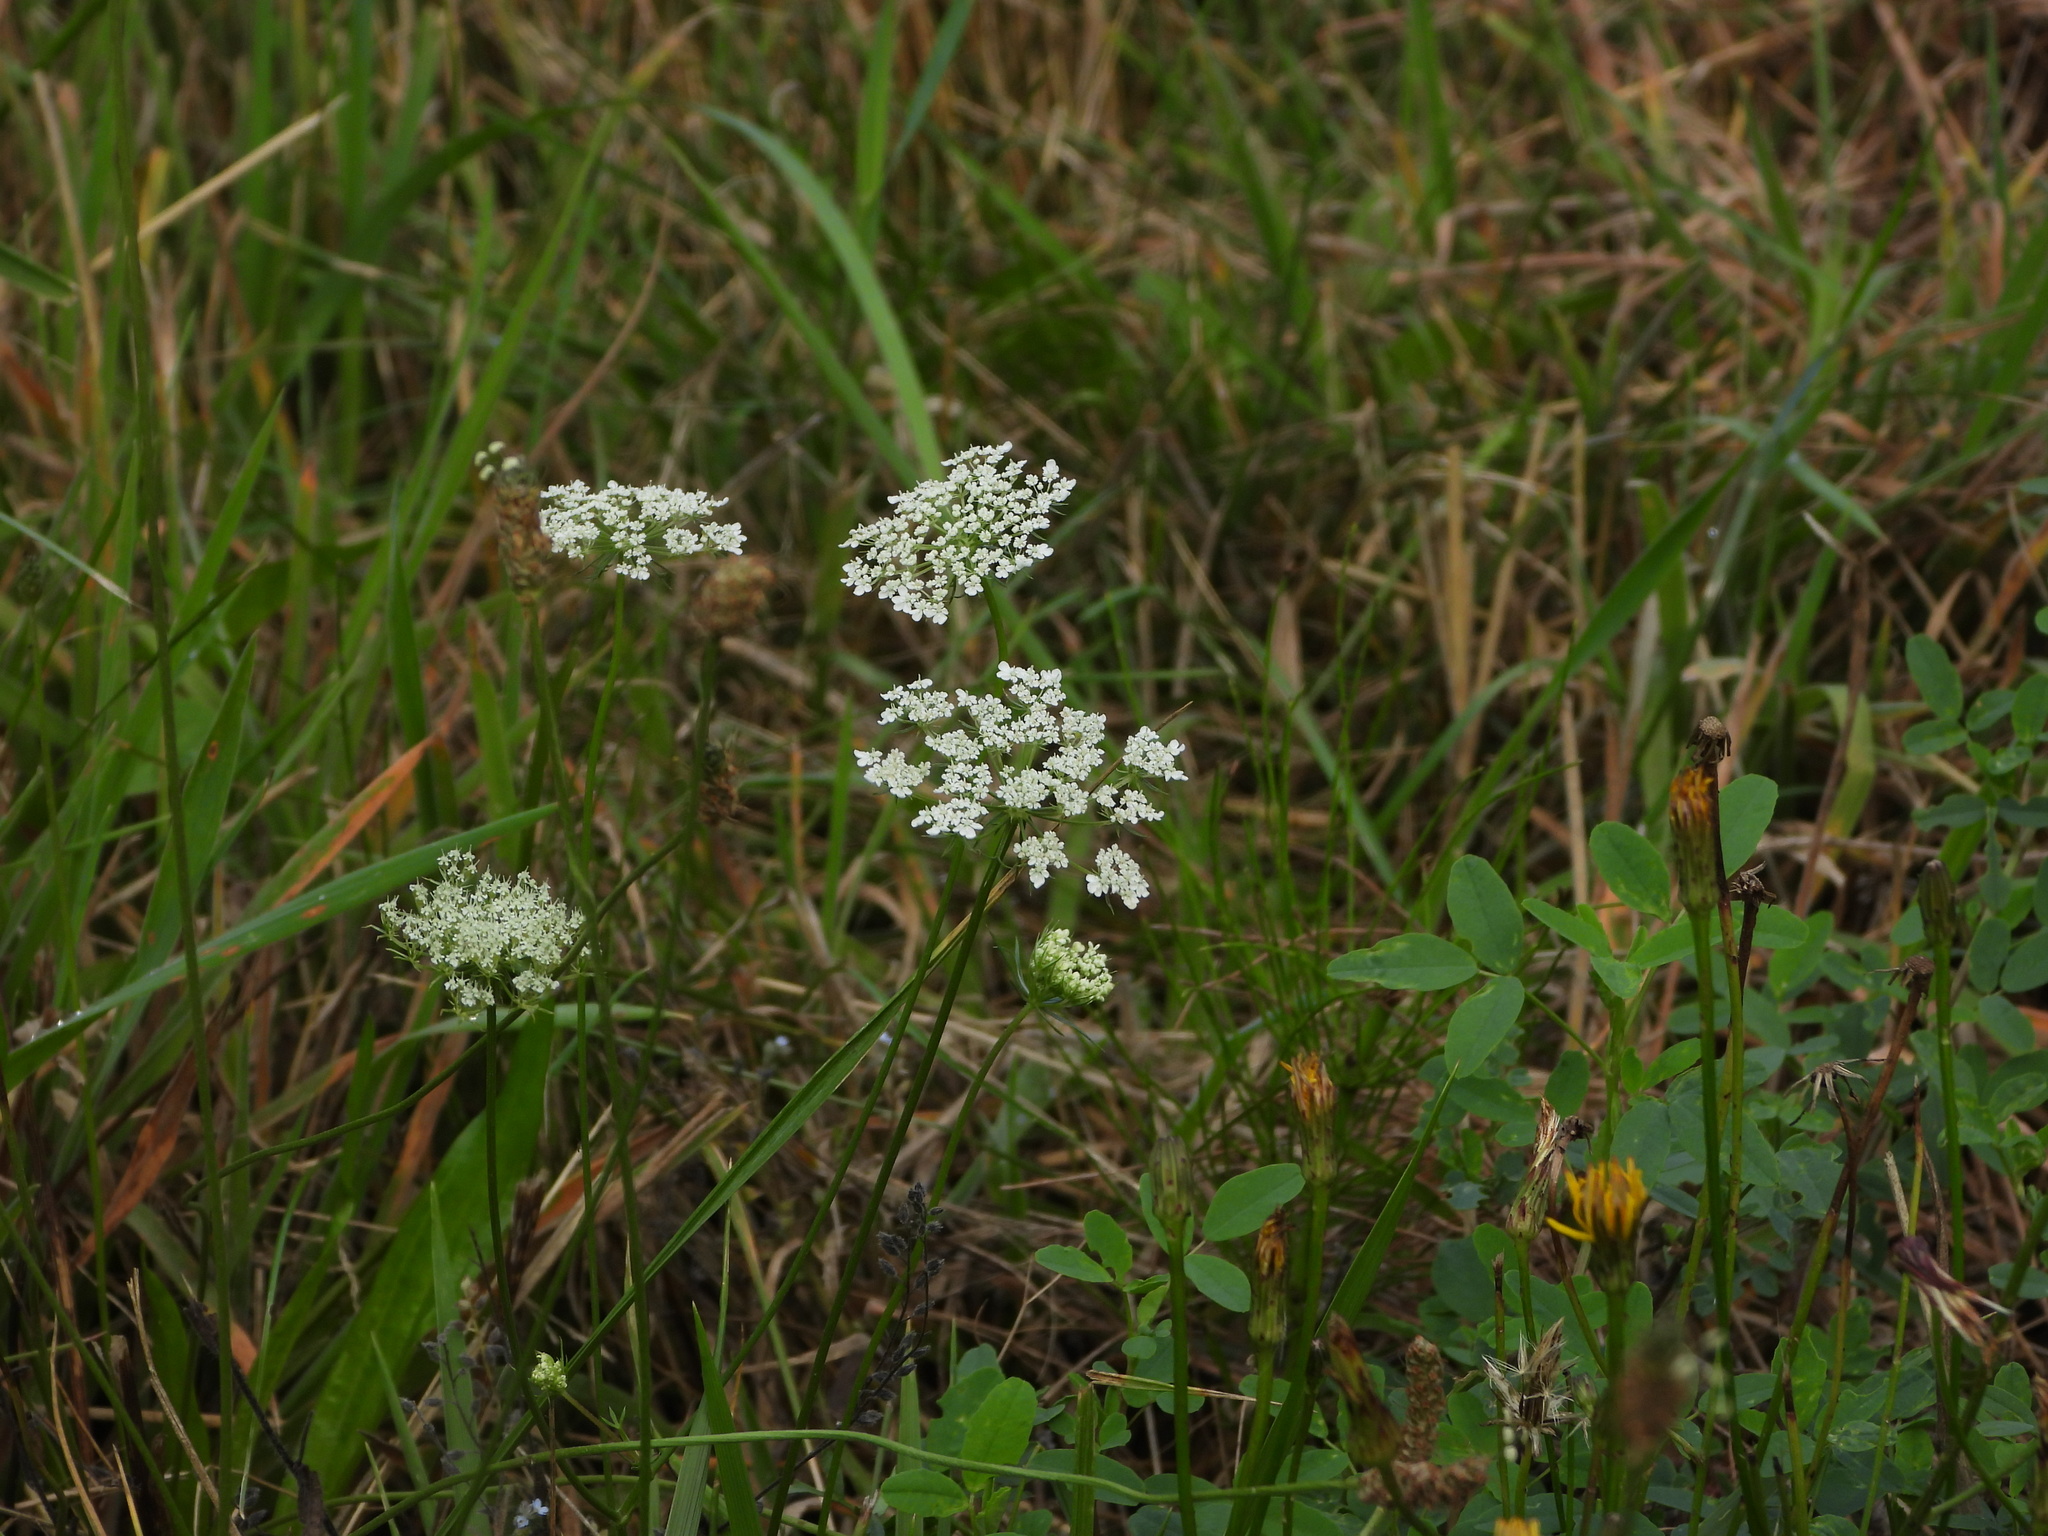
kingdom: Plantae
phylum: Tracheophyta
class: Magnoliopsida
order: Apiales
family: Apiaceae
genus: Daucus
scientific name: Daucus carota
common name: Wild carrot
